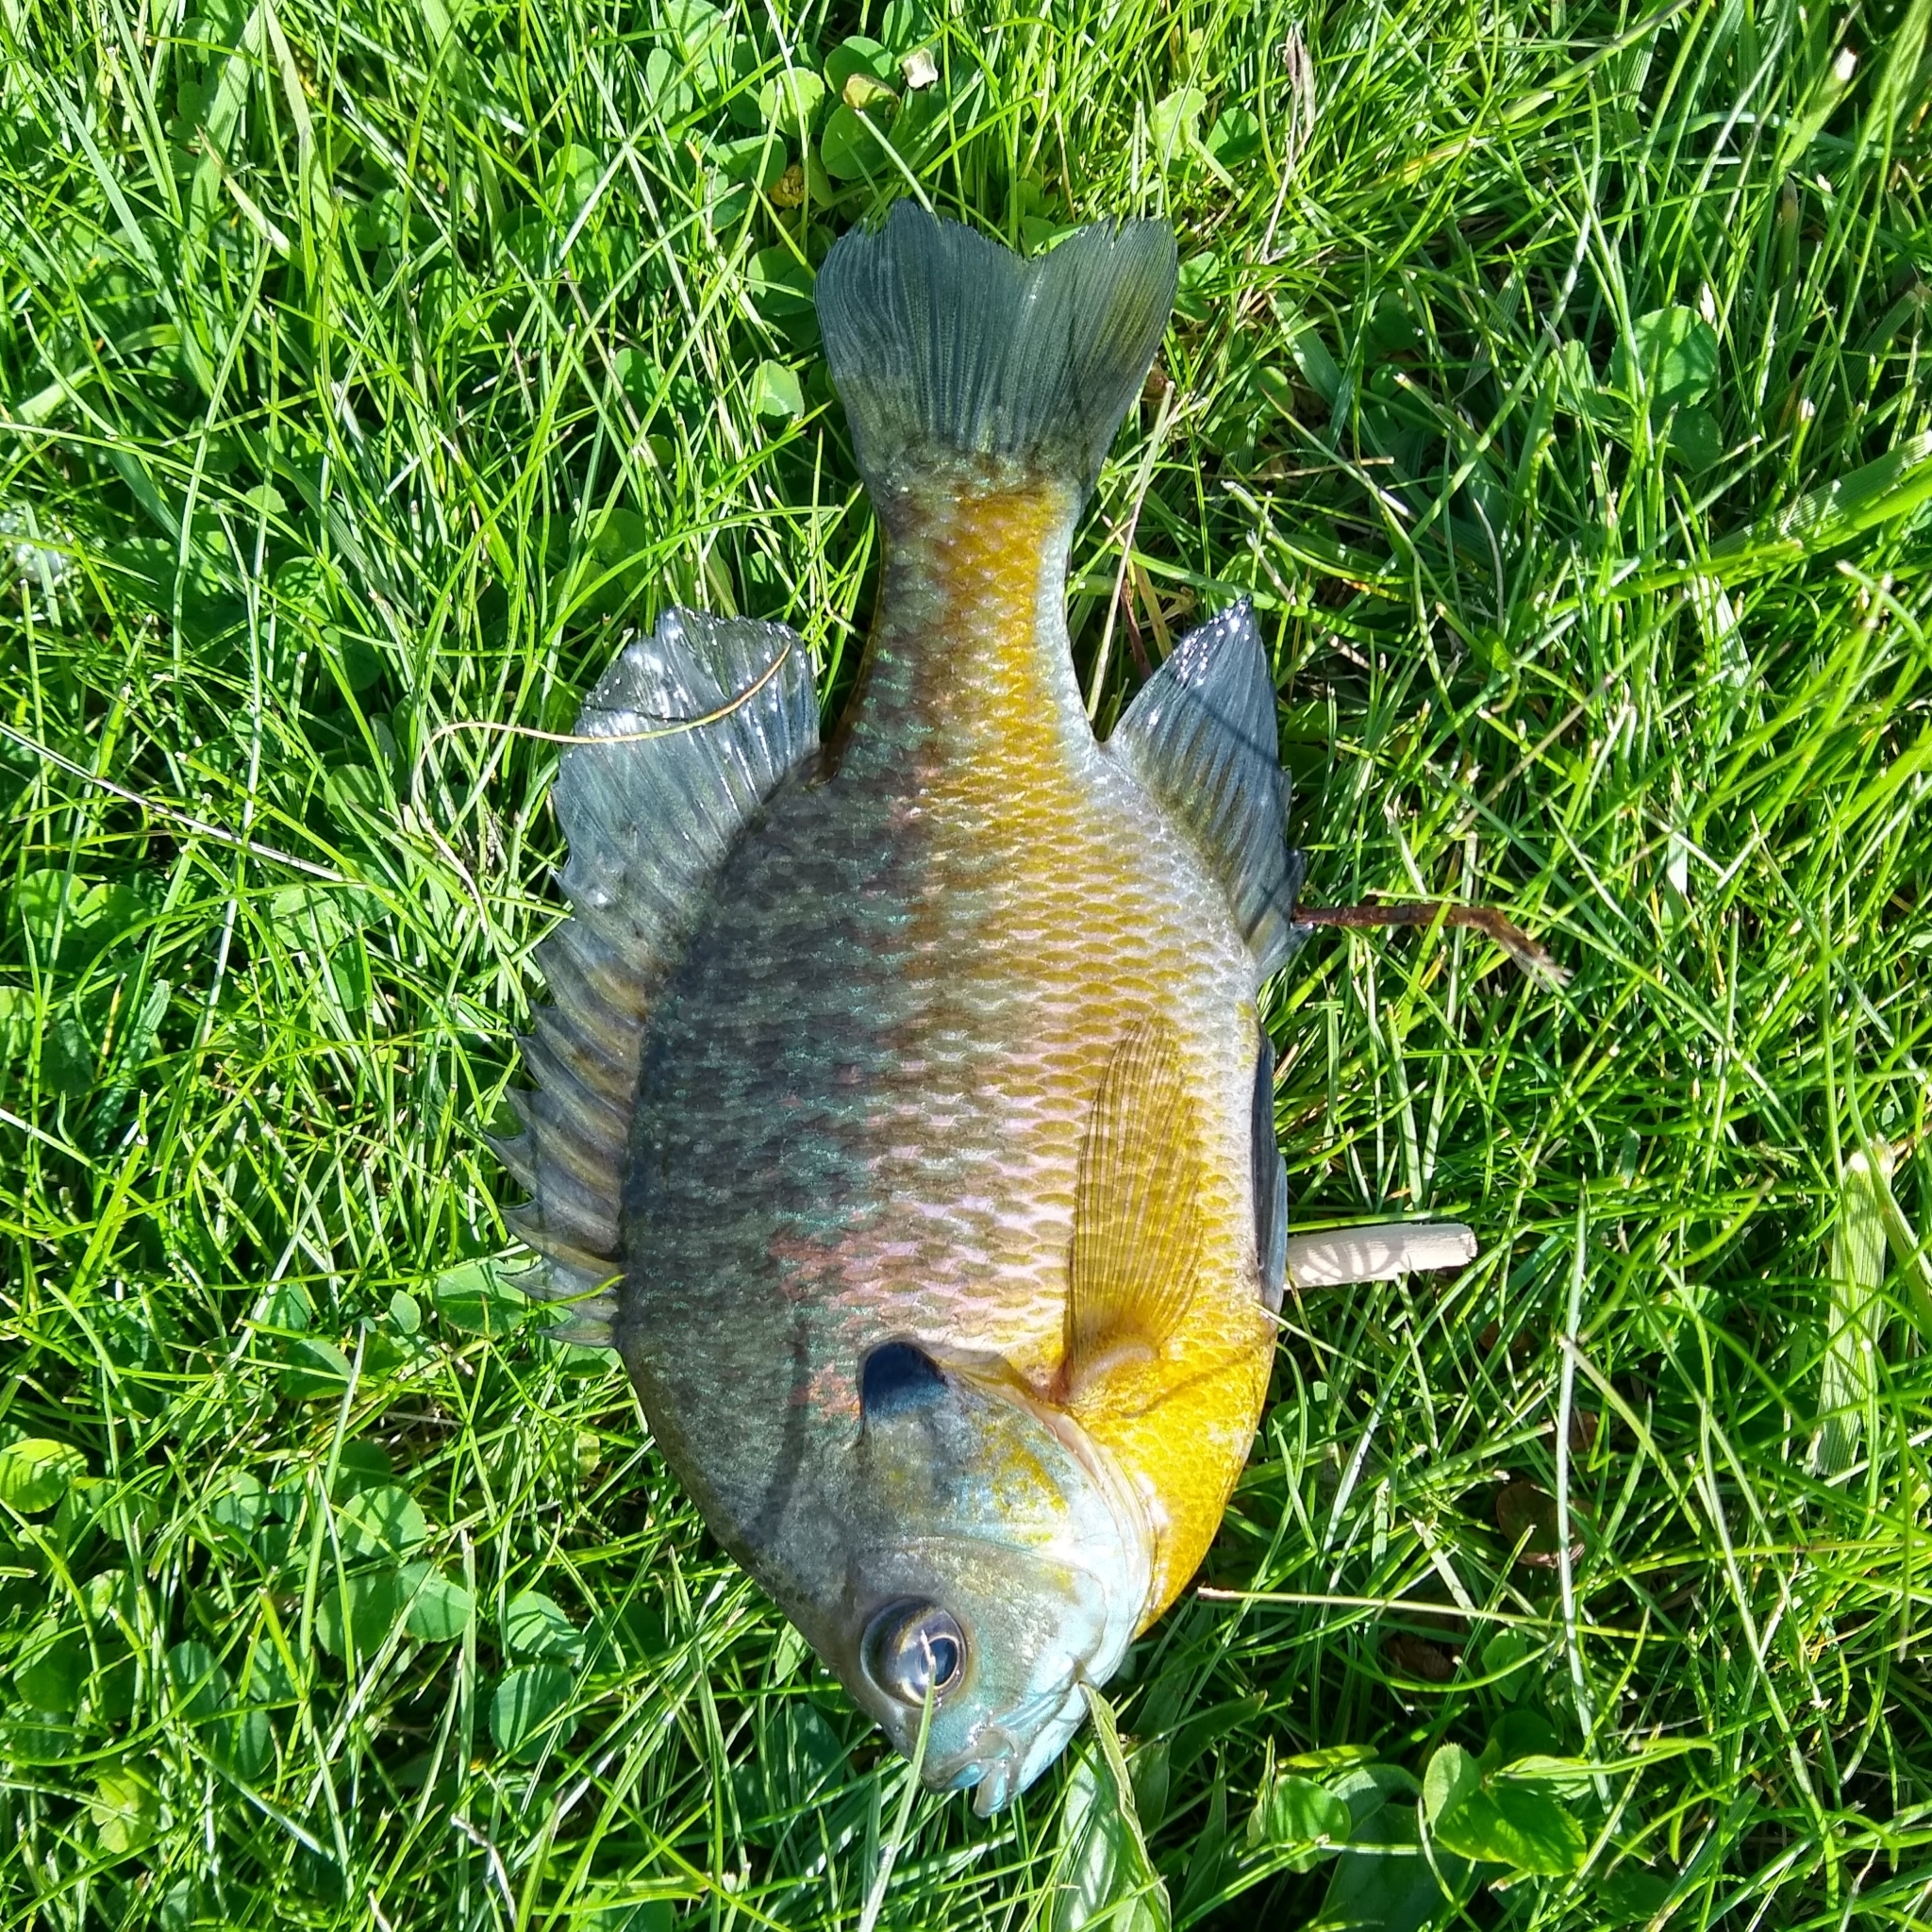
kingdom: Animalia
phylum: Chordata
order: Perciformes
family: Centrarchidae
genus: Lepomis
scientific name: Lepomis macrochirus
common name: Bluegill
